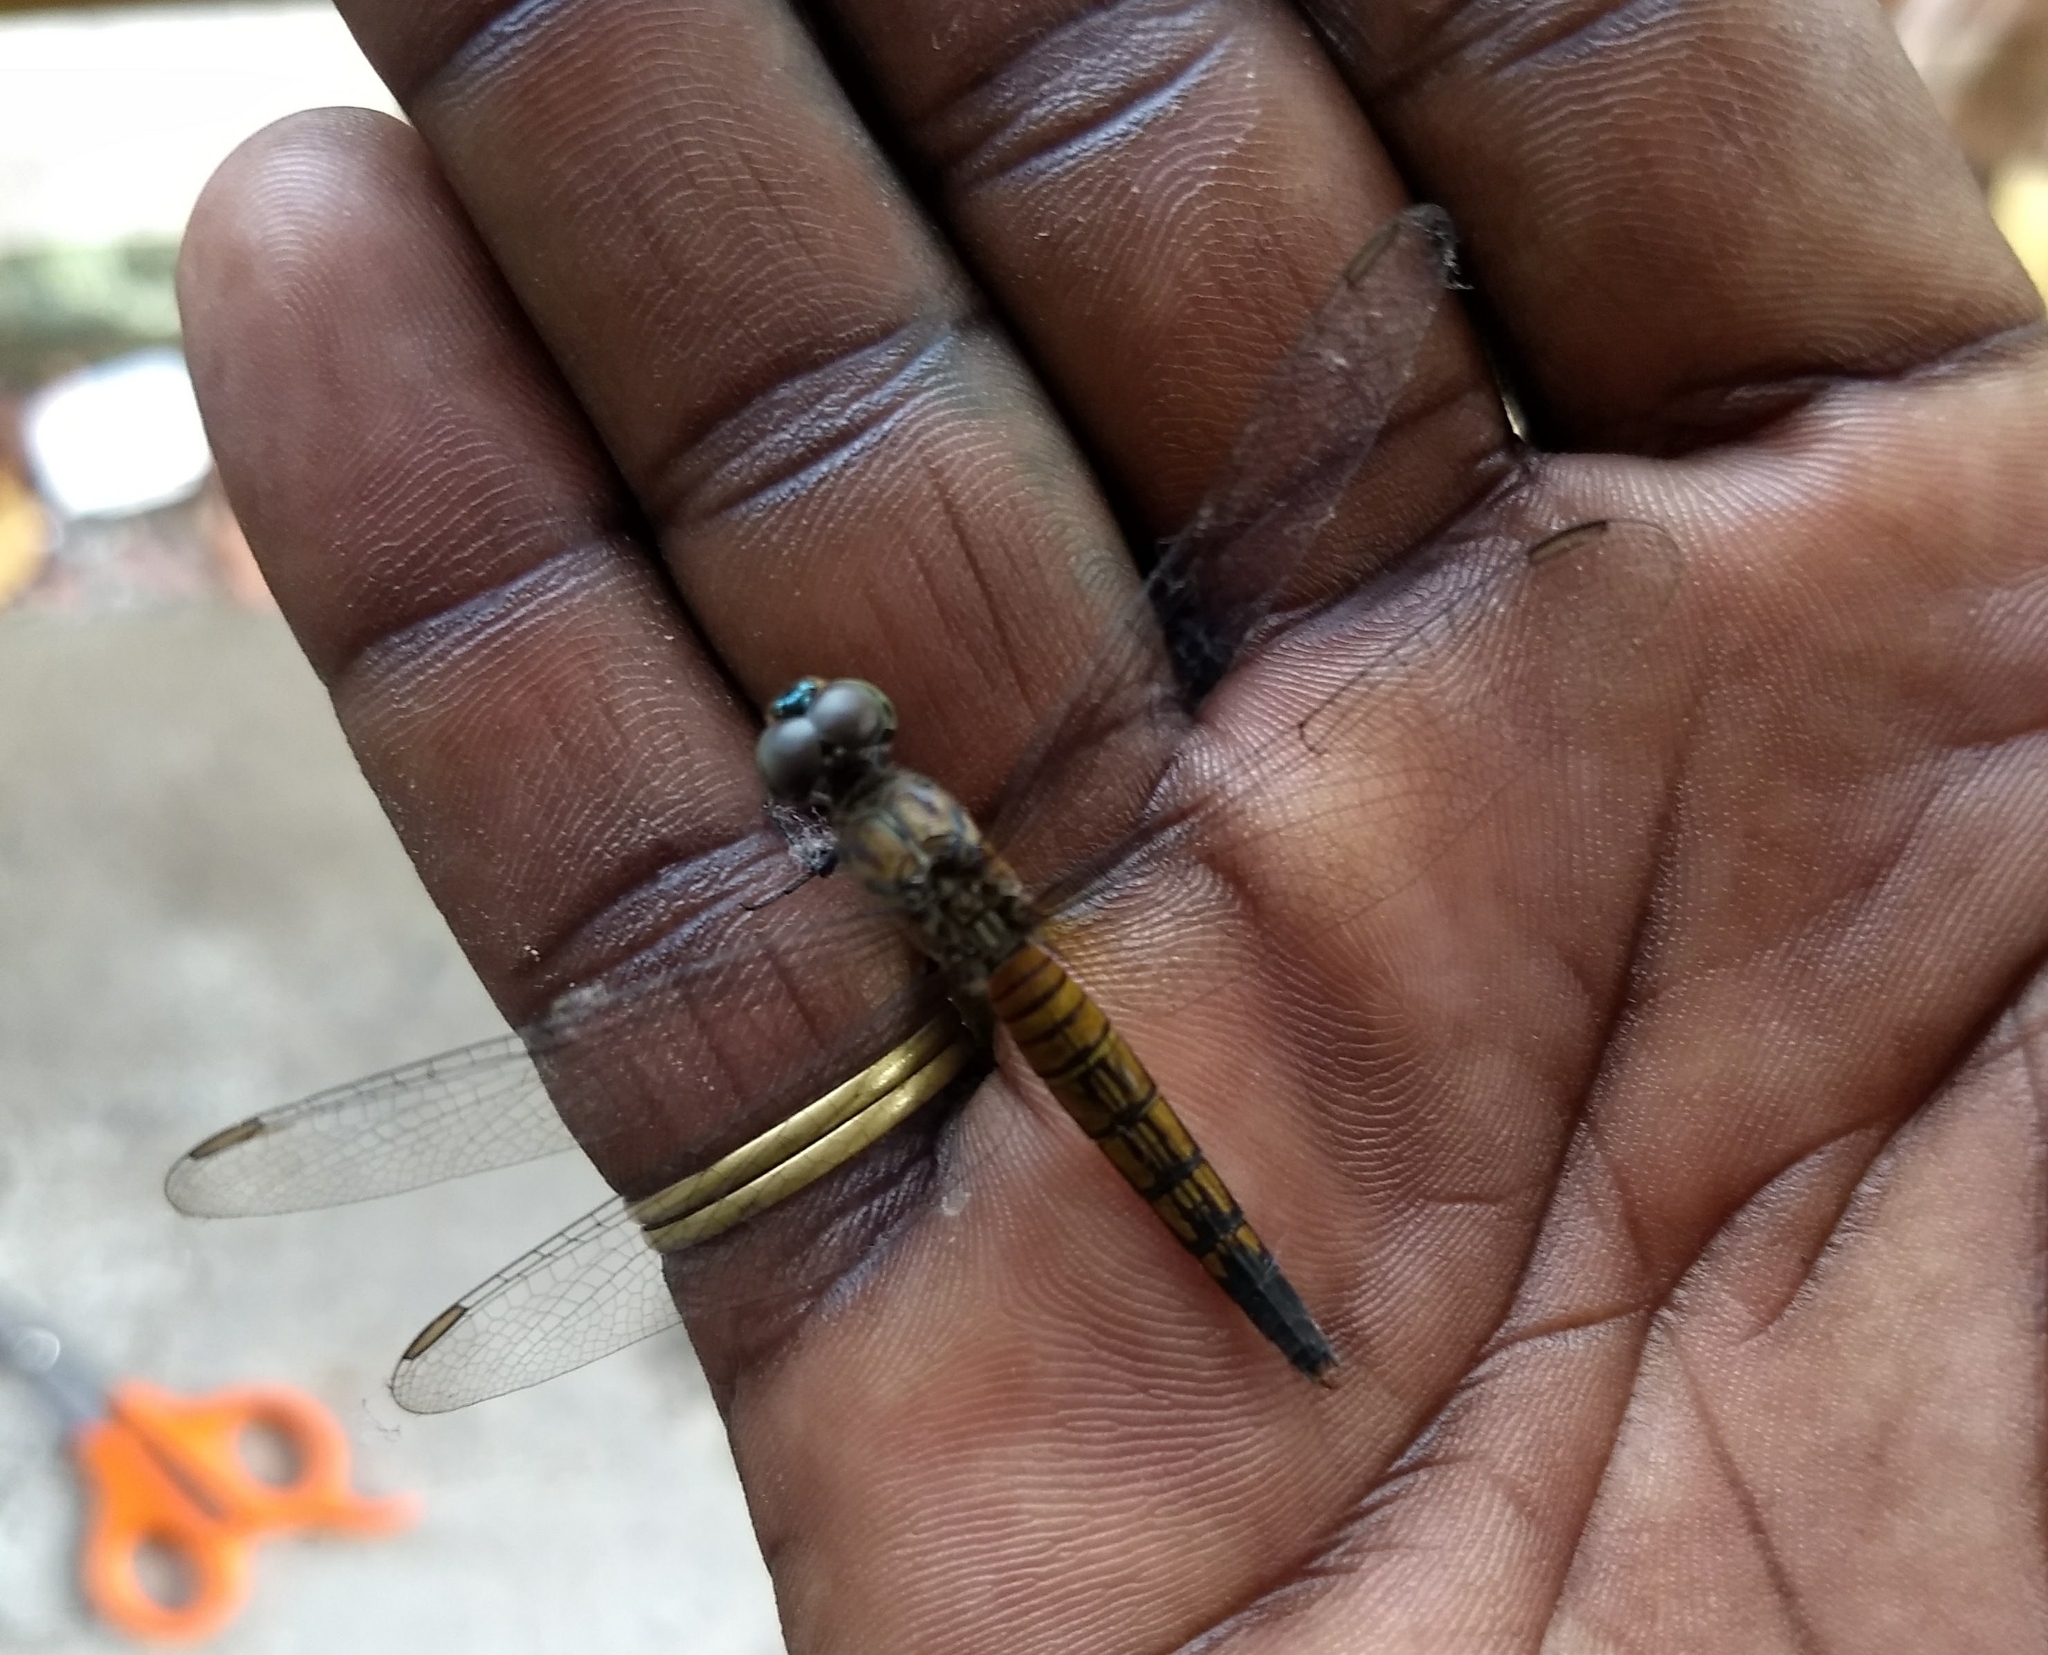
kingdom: Animalia
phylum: Arthropoda
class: Insecta
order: Odonata
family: Libellulidae
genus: Brachydiplax
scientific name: Brachydiplax chalybea
